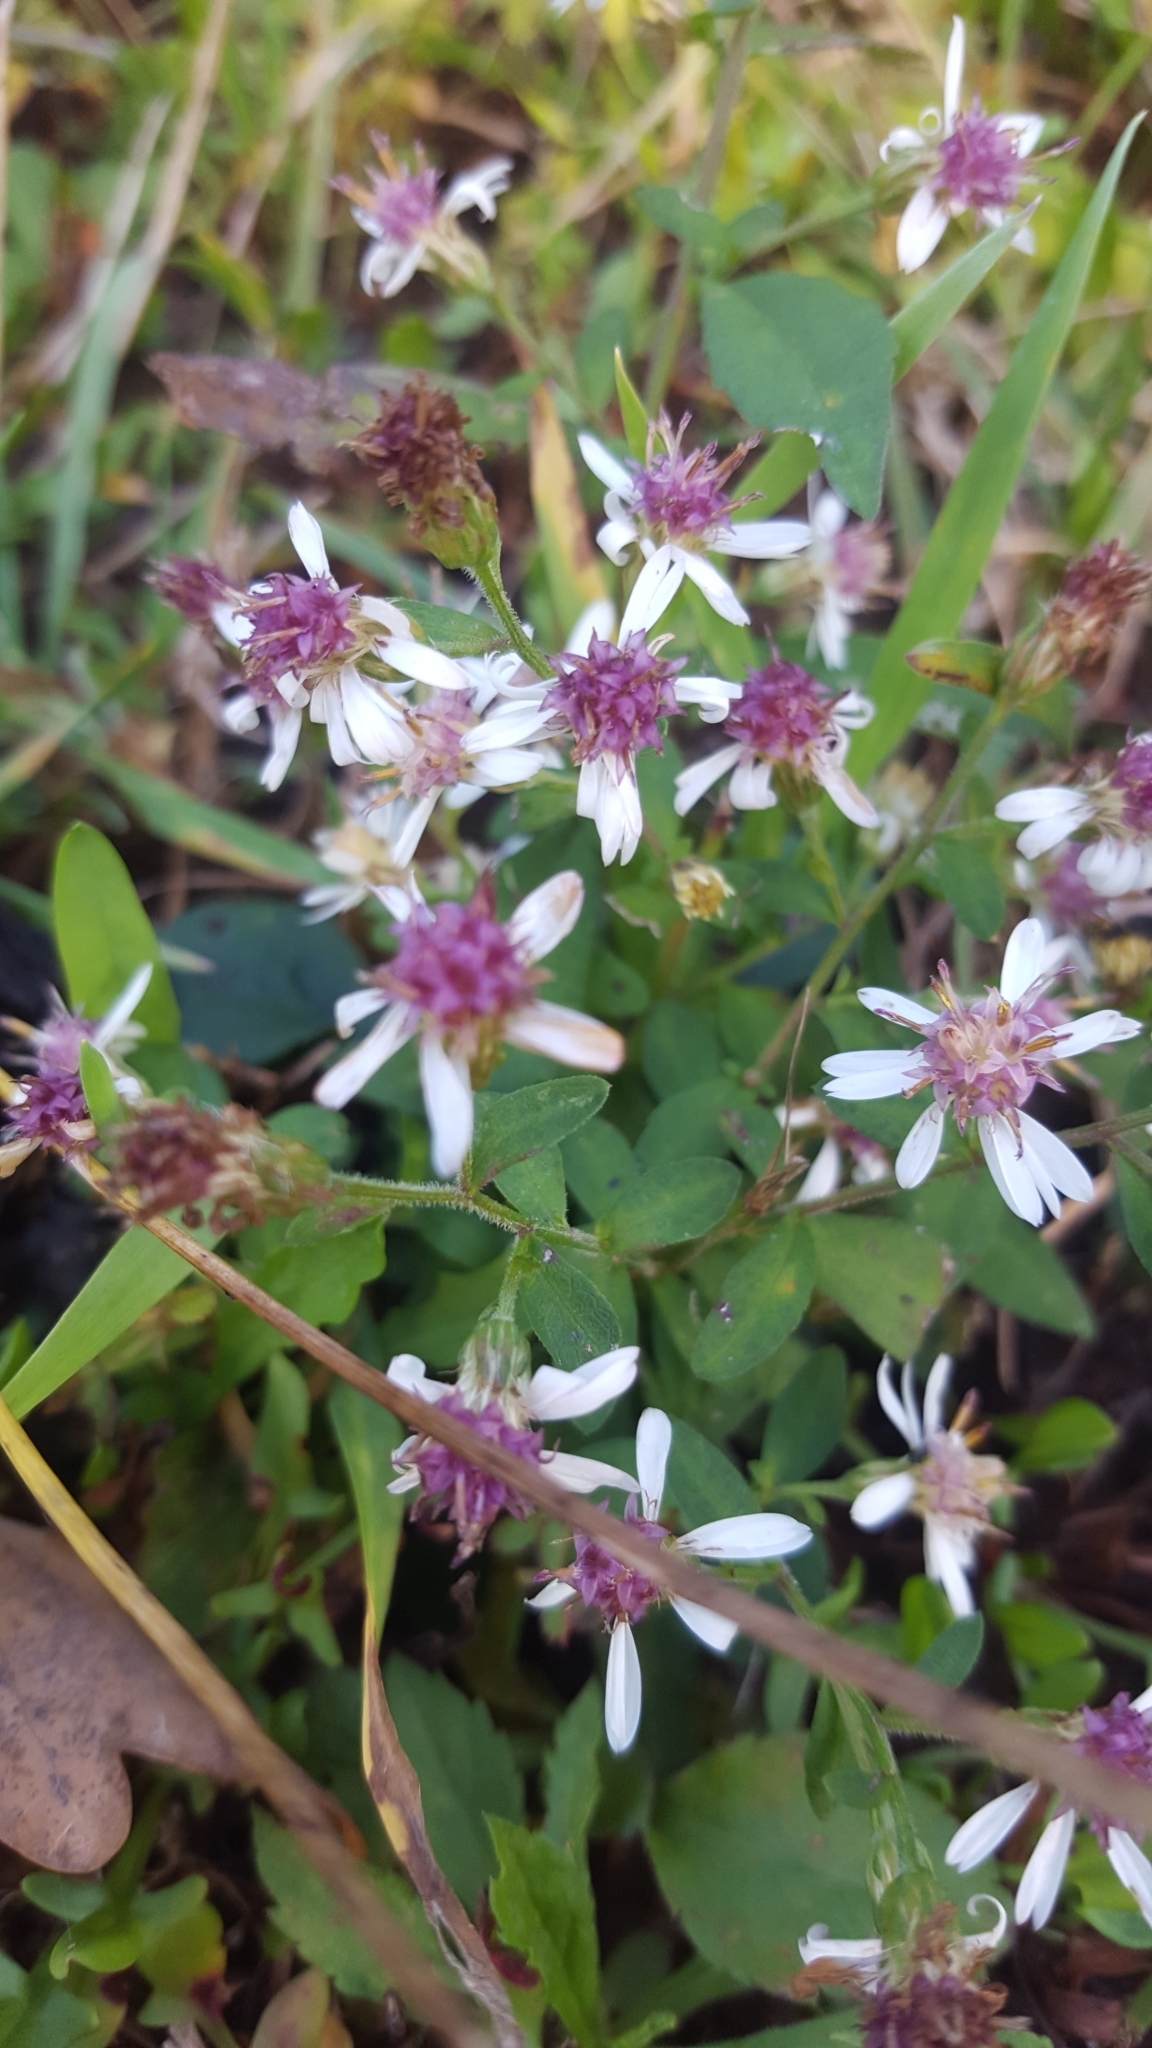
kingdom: Plantae
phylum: Tracheophyta
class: Magnoliopsida
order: Asterales
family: Asteraceae
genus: Symphyotrichum
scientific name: Symphyotrichum lateriflorum
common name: Calico aster
